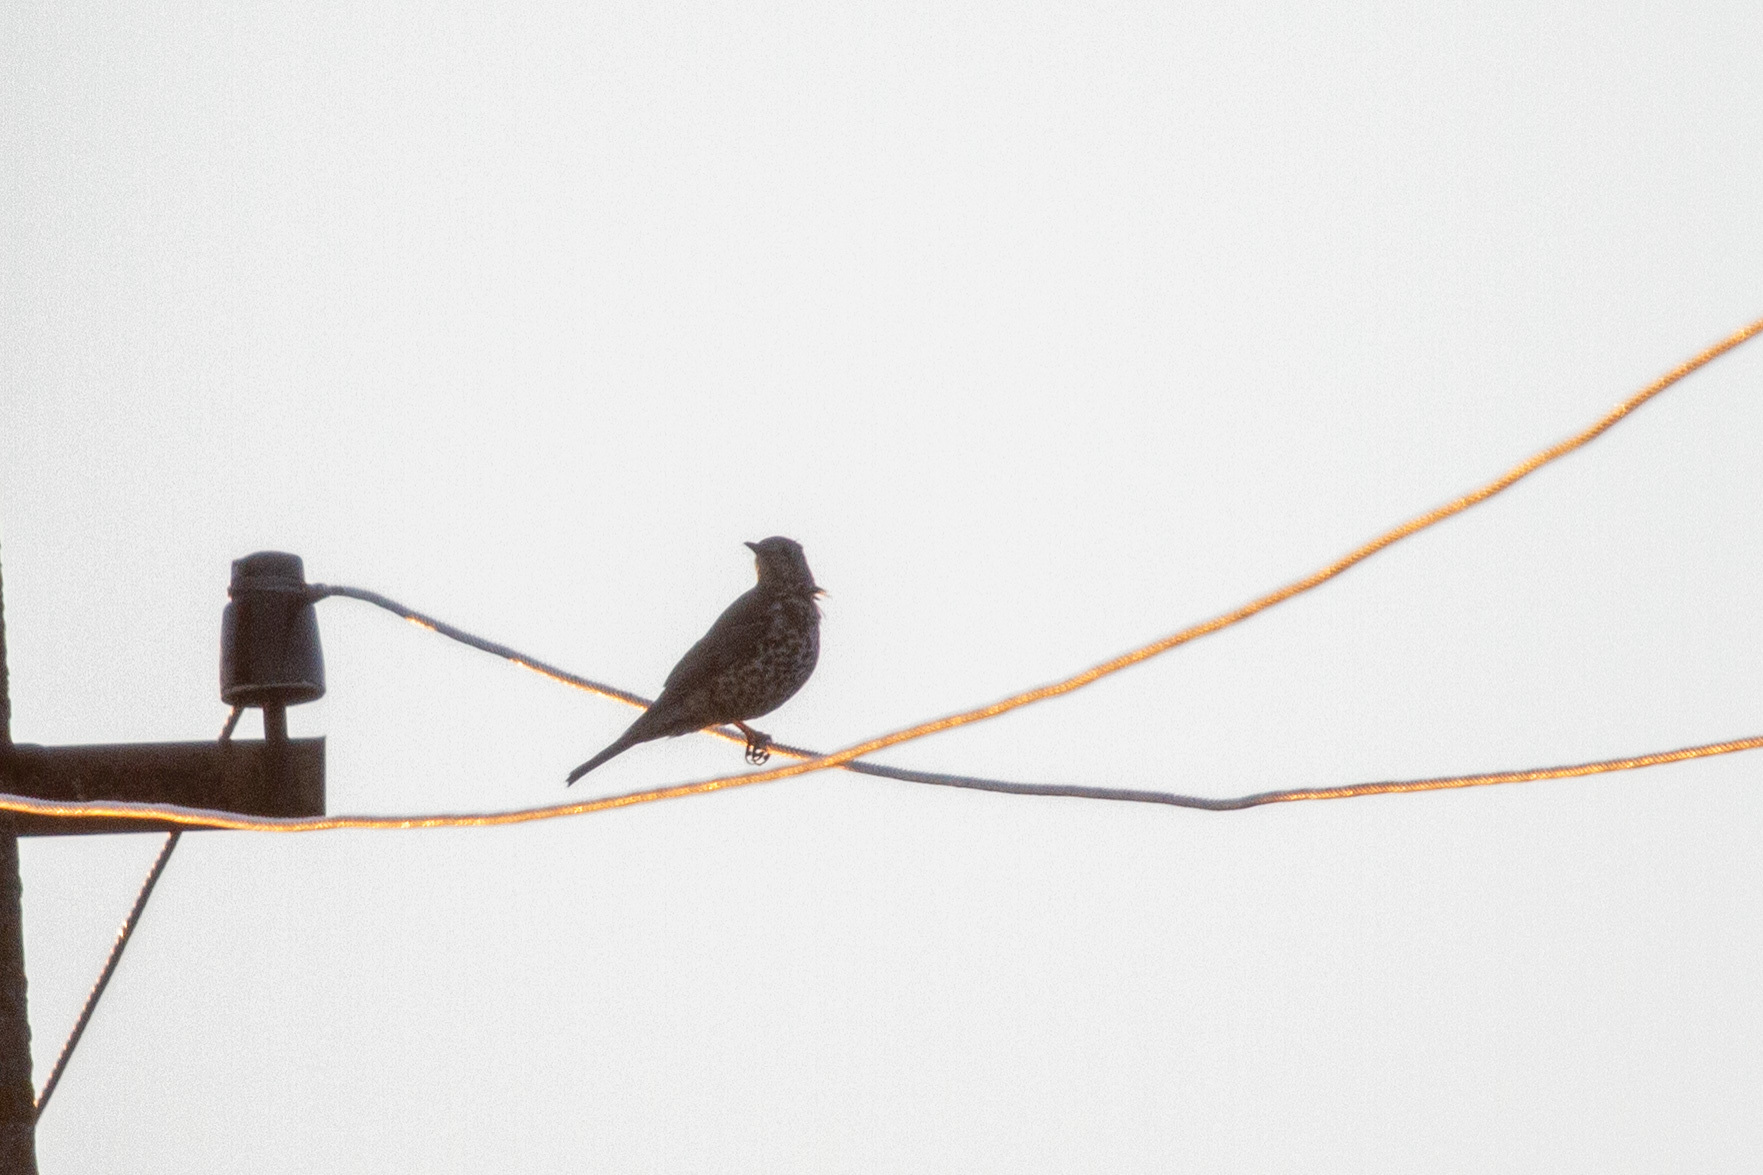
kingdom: Animalia
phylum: Chordata
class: Aves
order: Passeriformes
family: Turdidae
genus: Turdus
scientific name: Turdus viscivorus
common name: Mistle thrush
